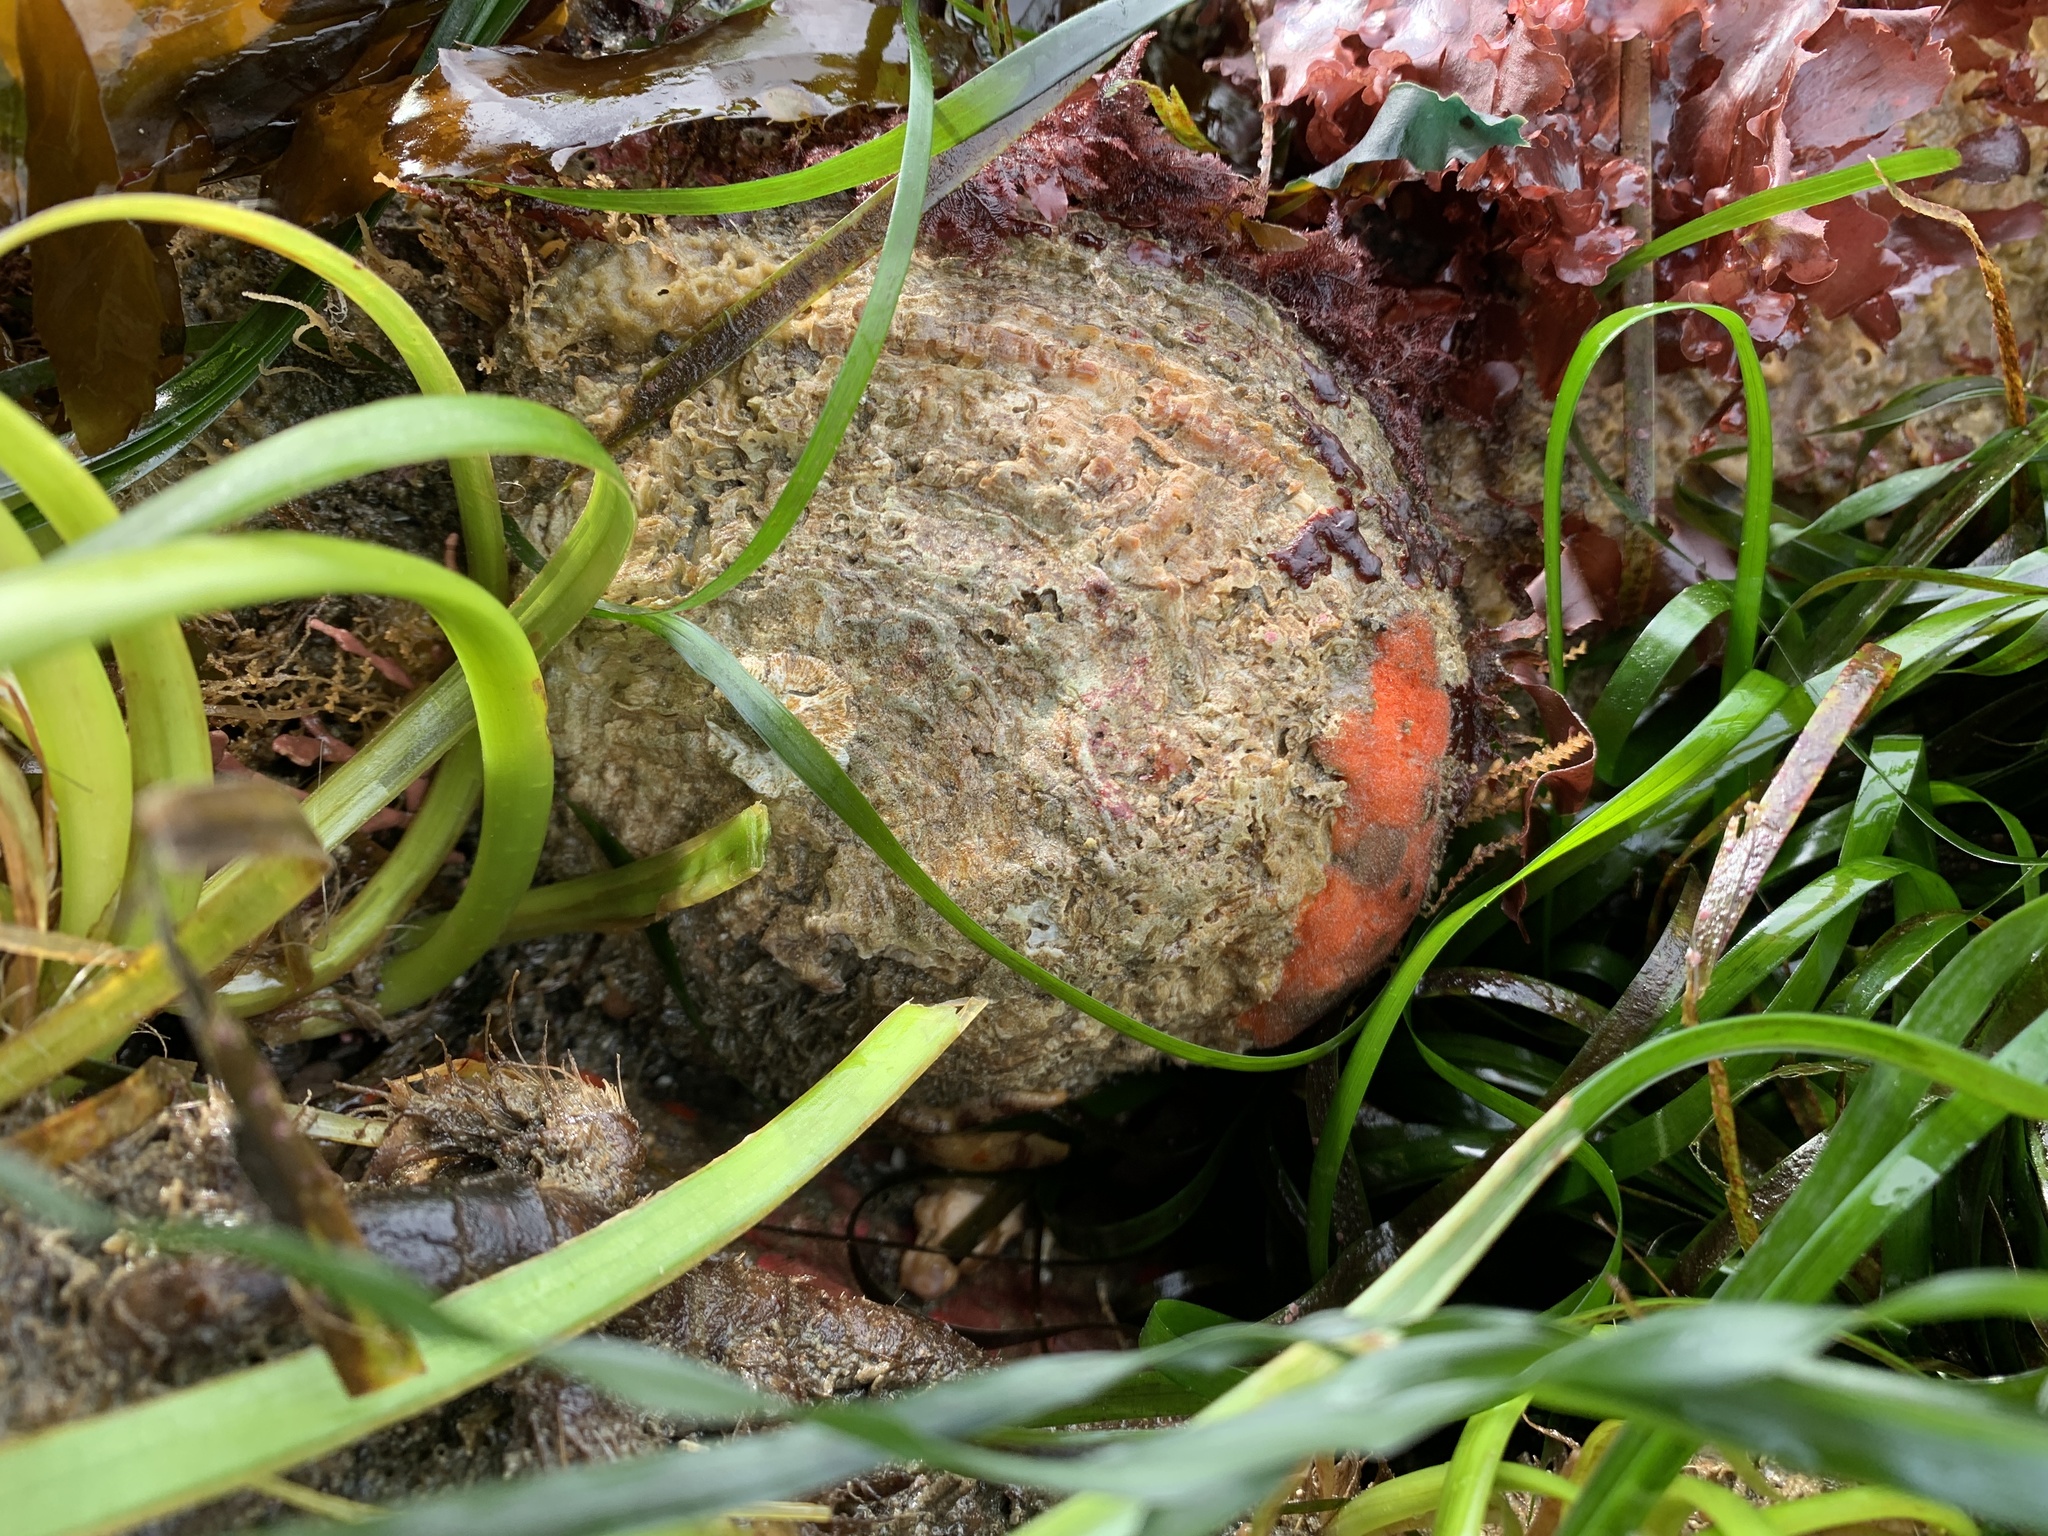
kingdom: Animalia
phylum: Mollusca
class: Bivalvia
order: Pectinida
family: Pectinidae
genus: Crassadoma
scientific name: Crassadoma gigantea
